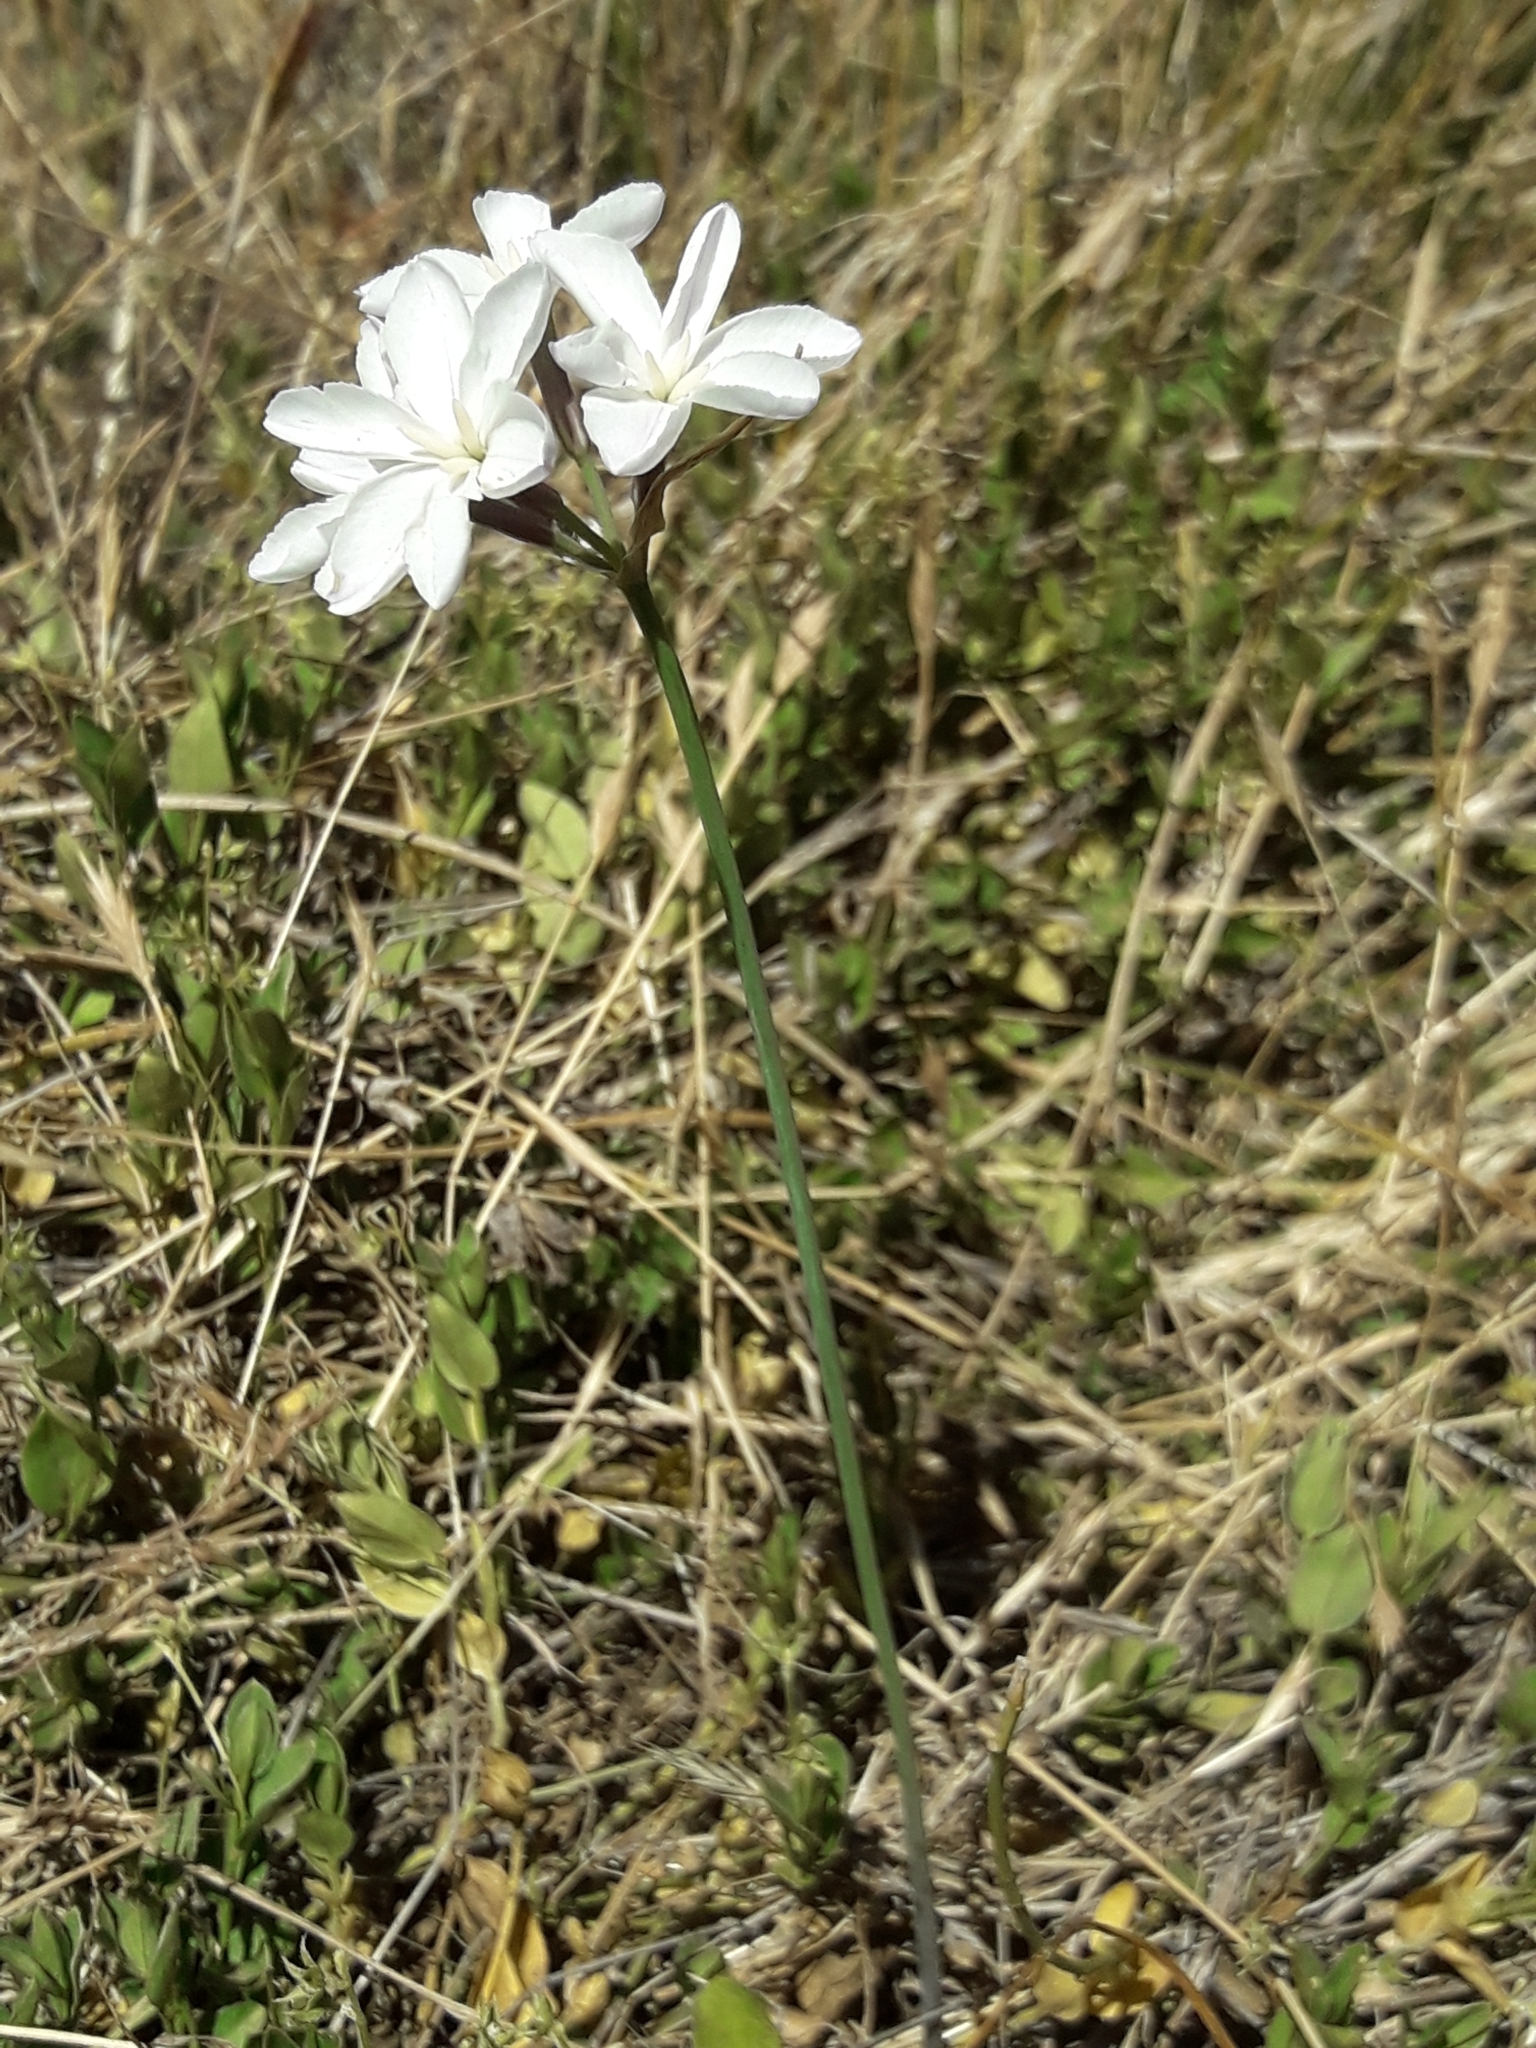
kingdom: Plantae
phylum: Tracheophyta
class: Liliopsida
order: Asparagales
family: Amaryllidaceae
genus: Leucocoryne
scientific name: Leucocoryne foetida
